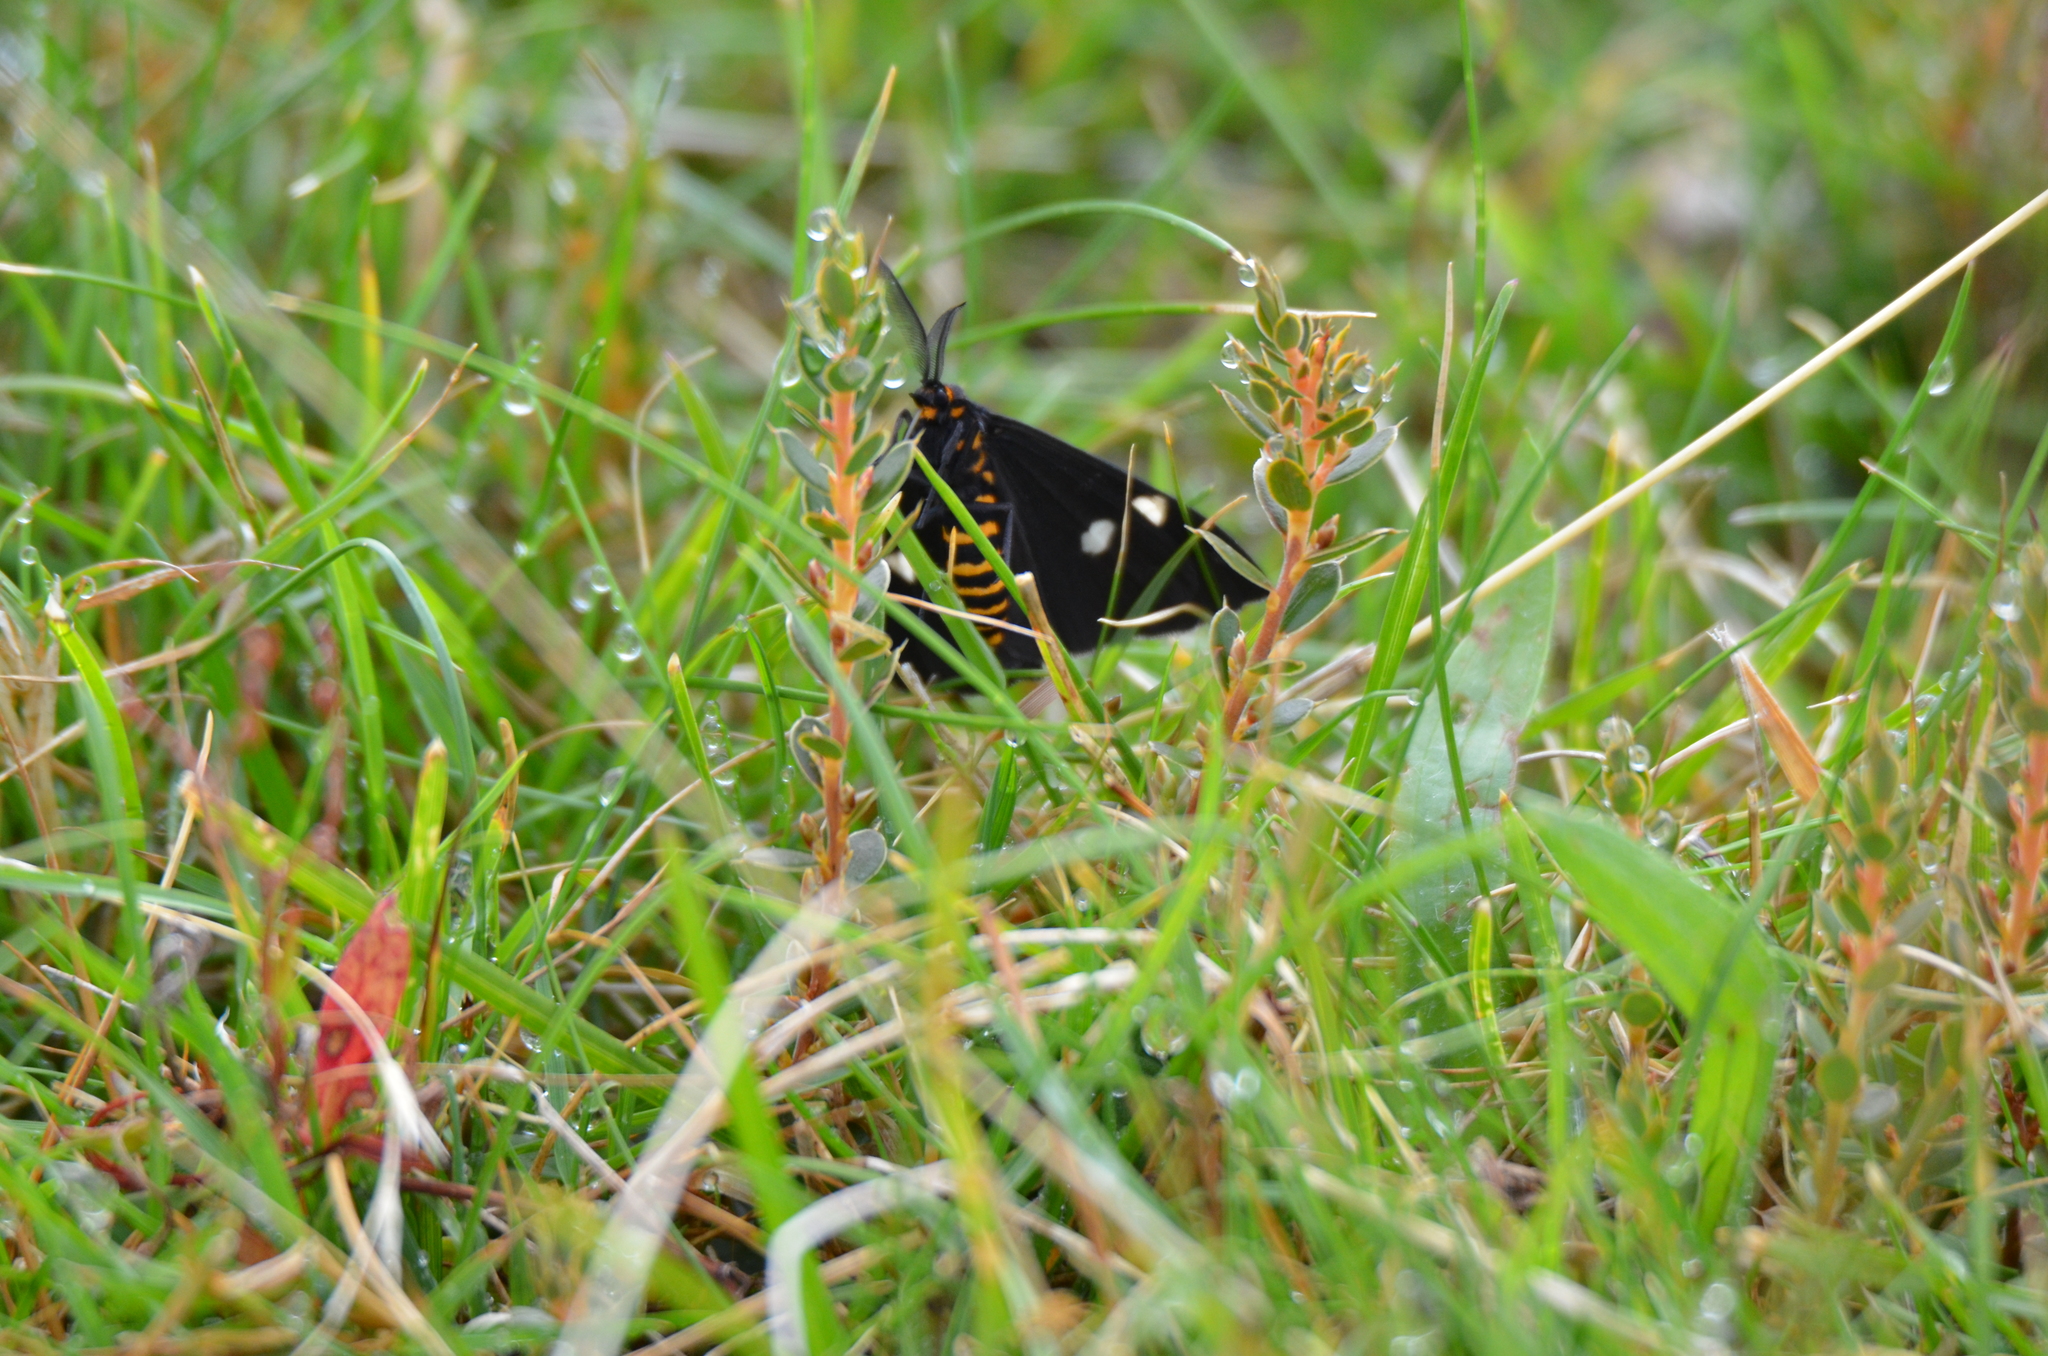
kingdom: Animalia
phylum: Arthropoda
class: Insecta
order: Lepidoptera
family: Erebidae
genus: Nyctemera
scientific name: Nyctemera annulatum
